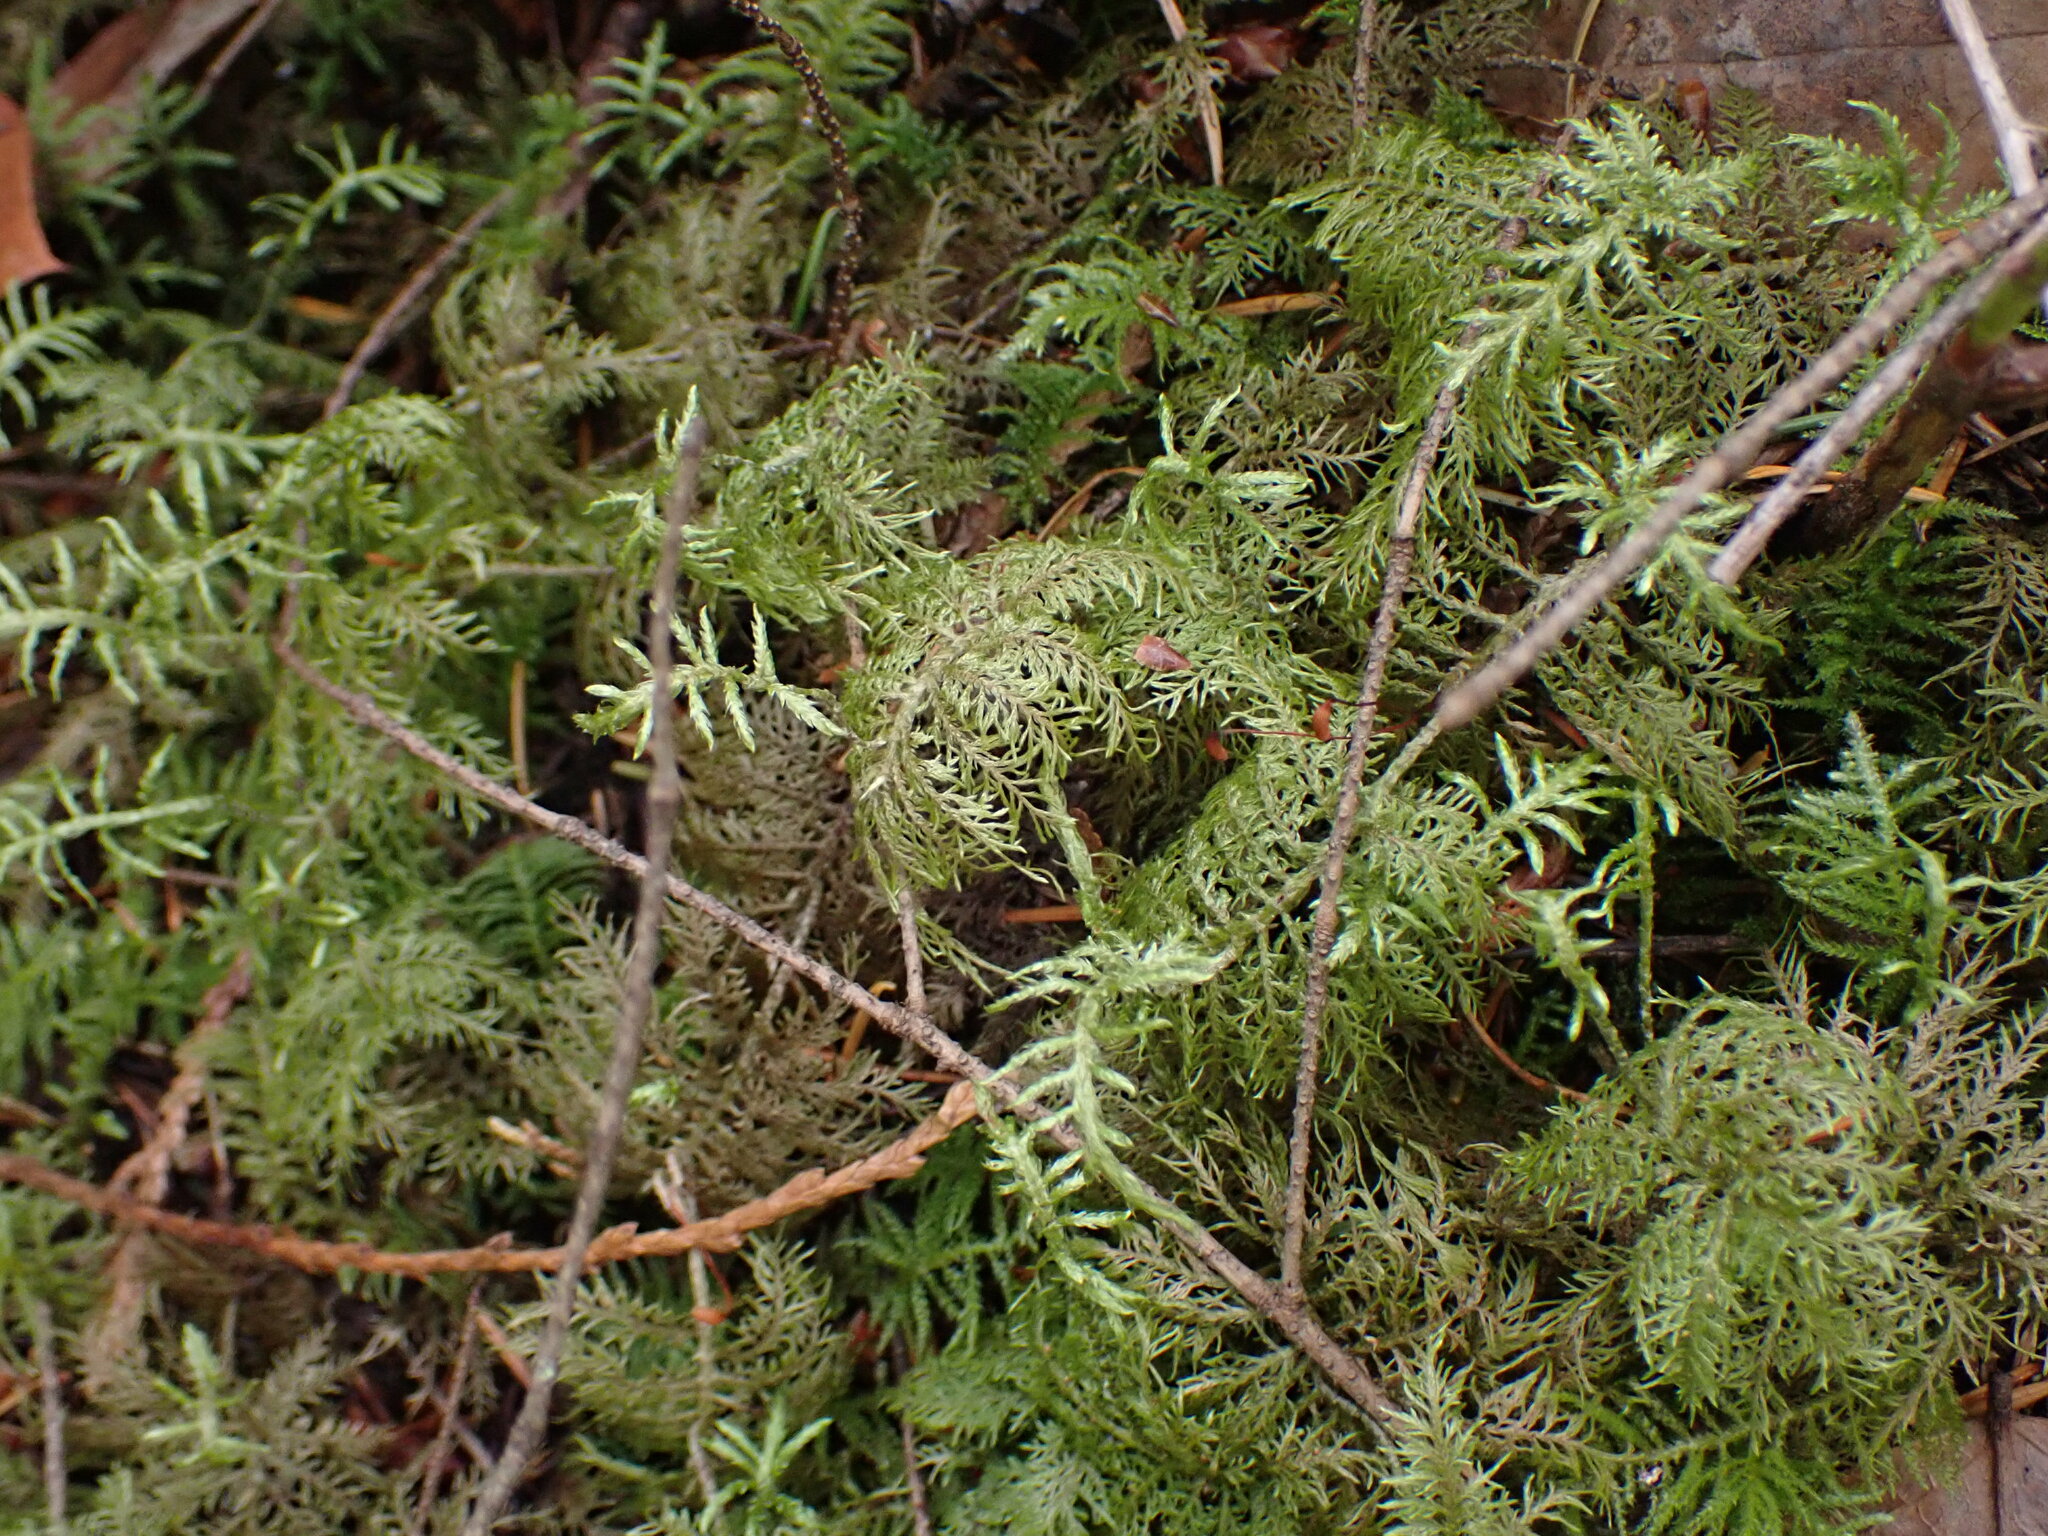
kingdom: Plantae
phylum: Bryophyta
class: Bryopsida
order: Hypnales
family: Hylocomiaceae
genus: Hylocomium
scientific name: Hylocomium splendens
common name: Stairstep moss
